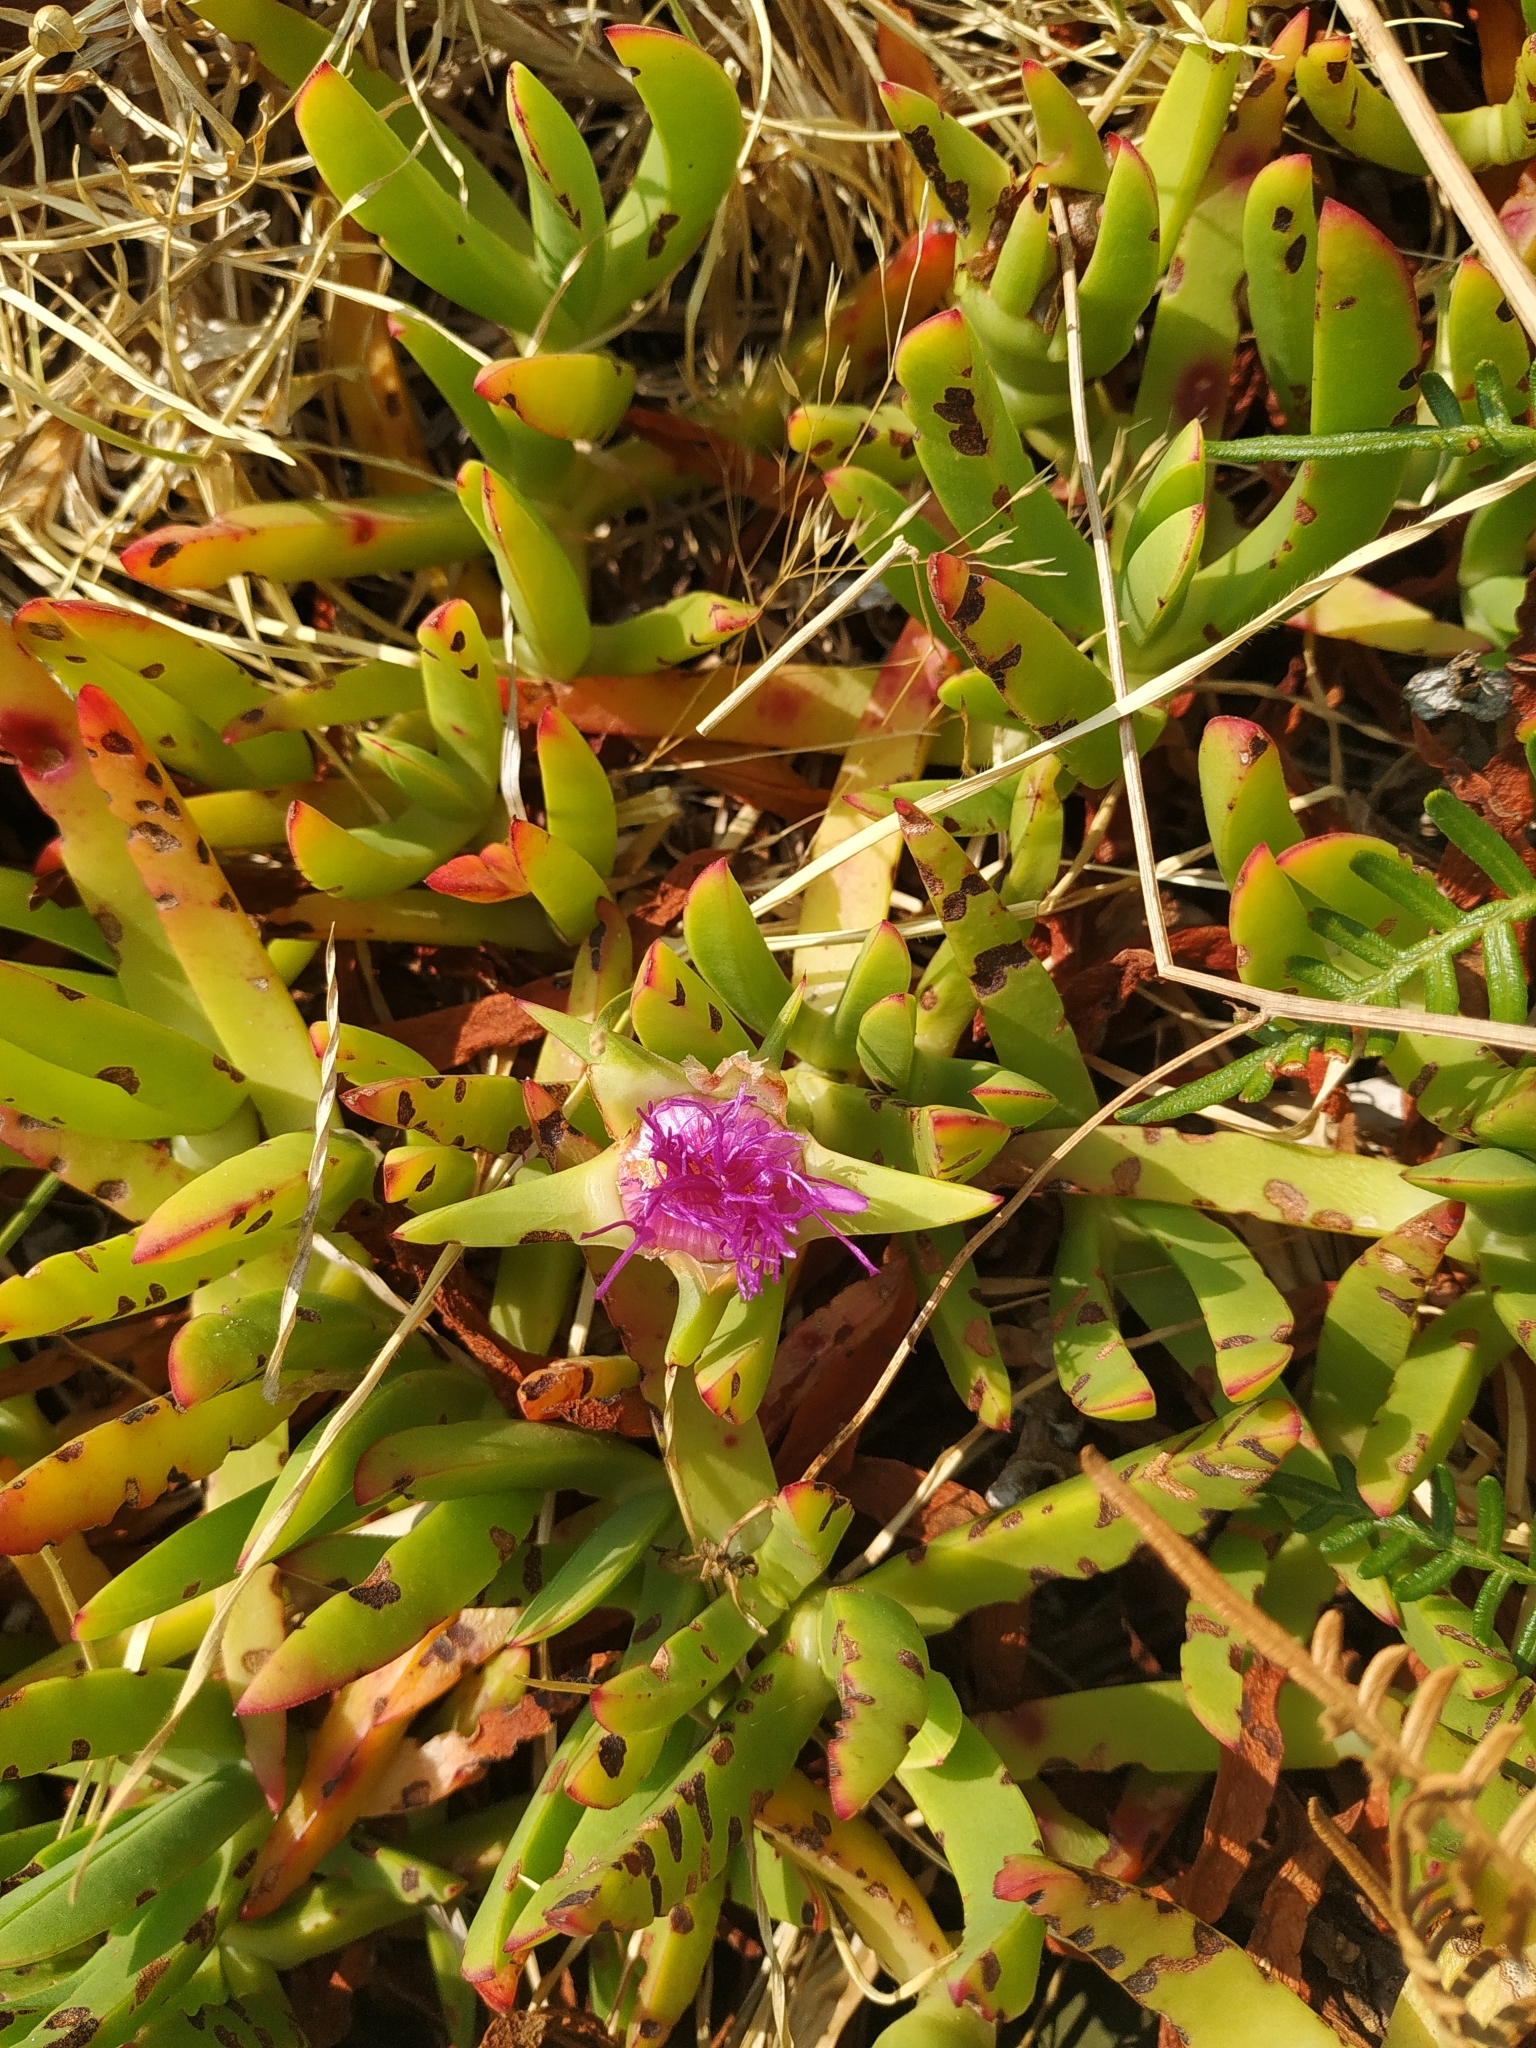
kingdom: Plantae
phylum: Tracheophyta
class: Magnoliopsida
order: Caryophyllales
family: Aizoaceae
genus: Disphyma
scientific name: Disphyma australe
